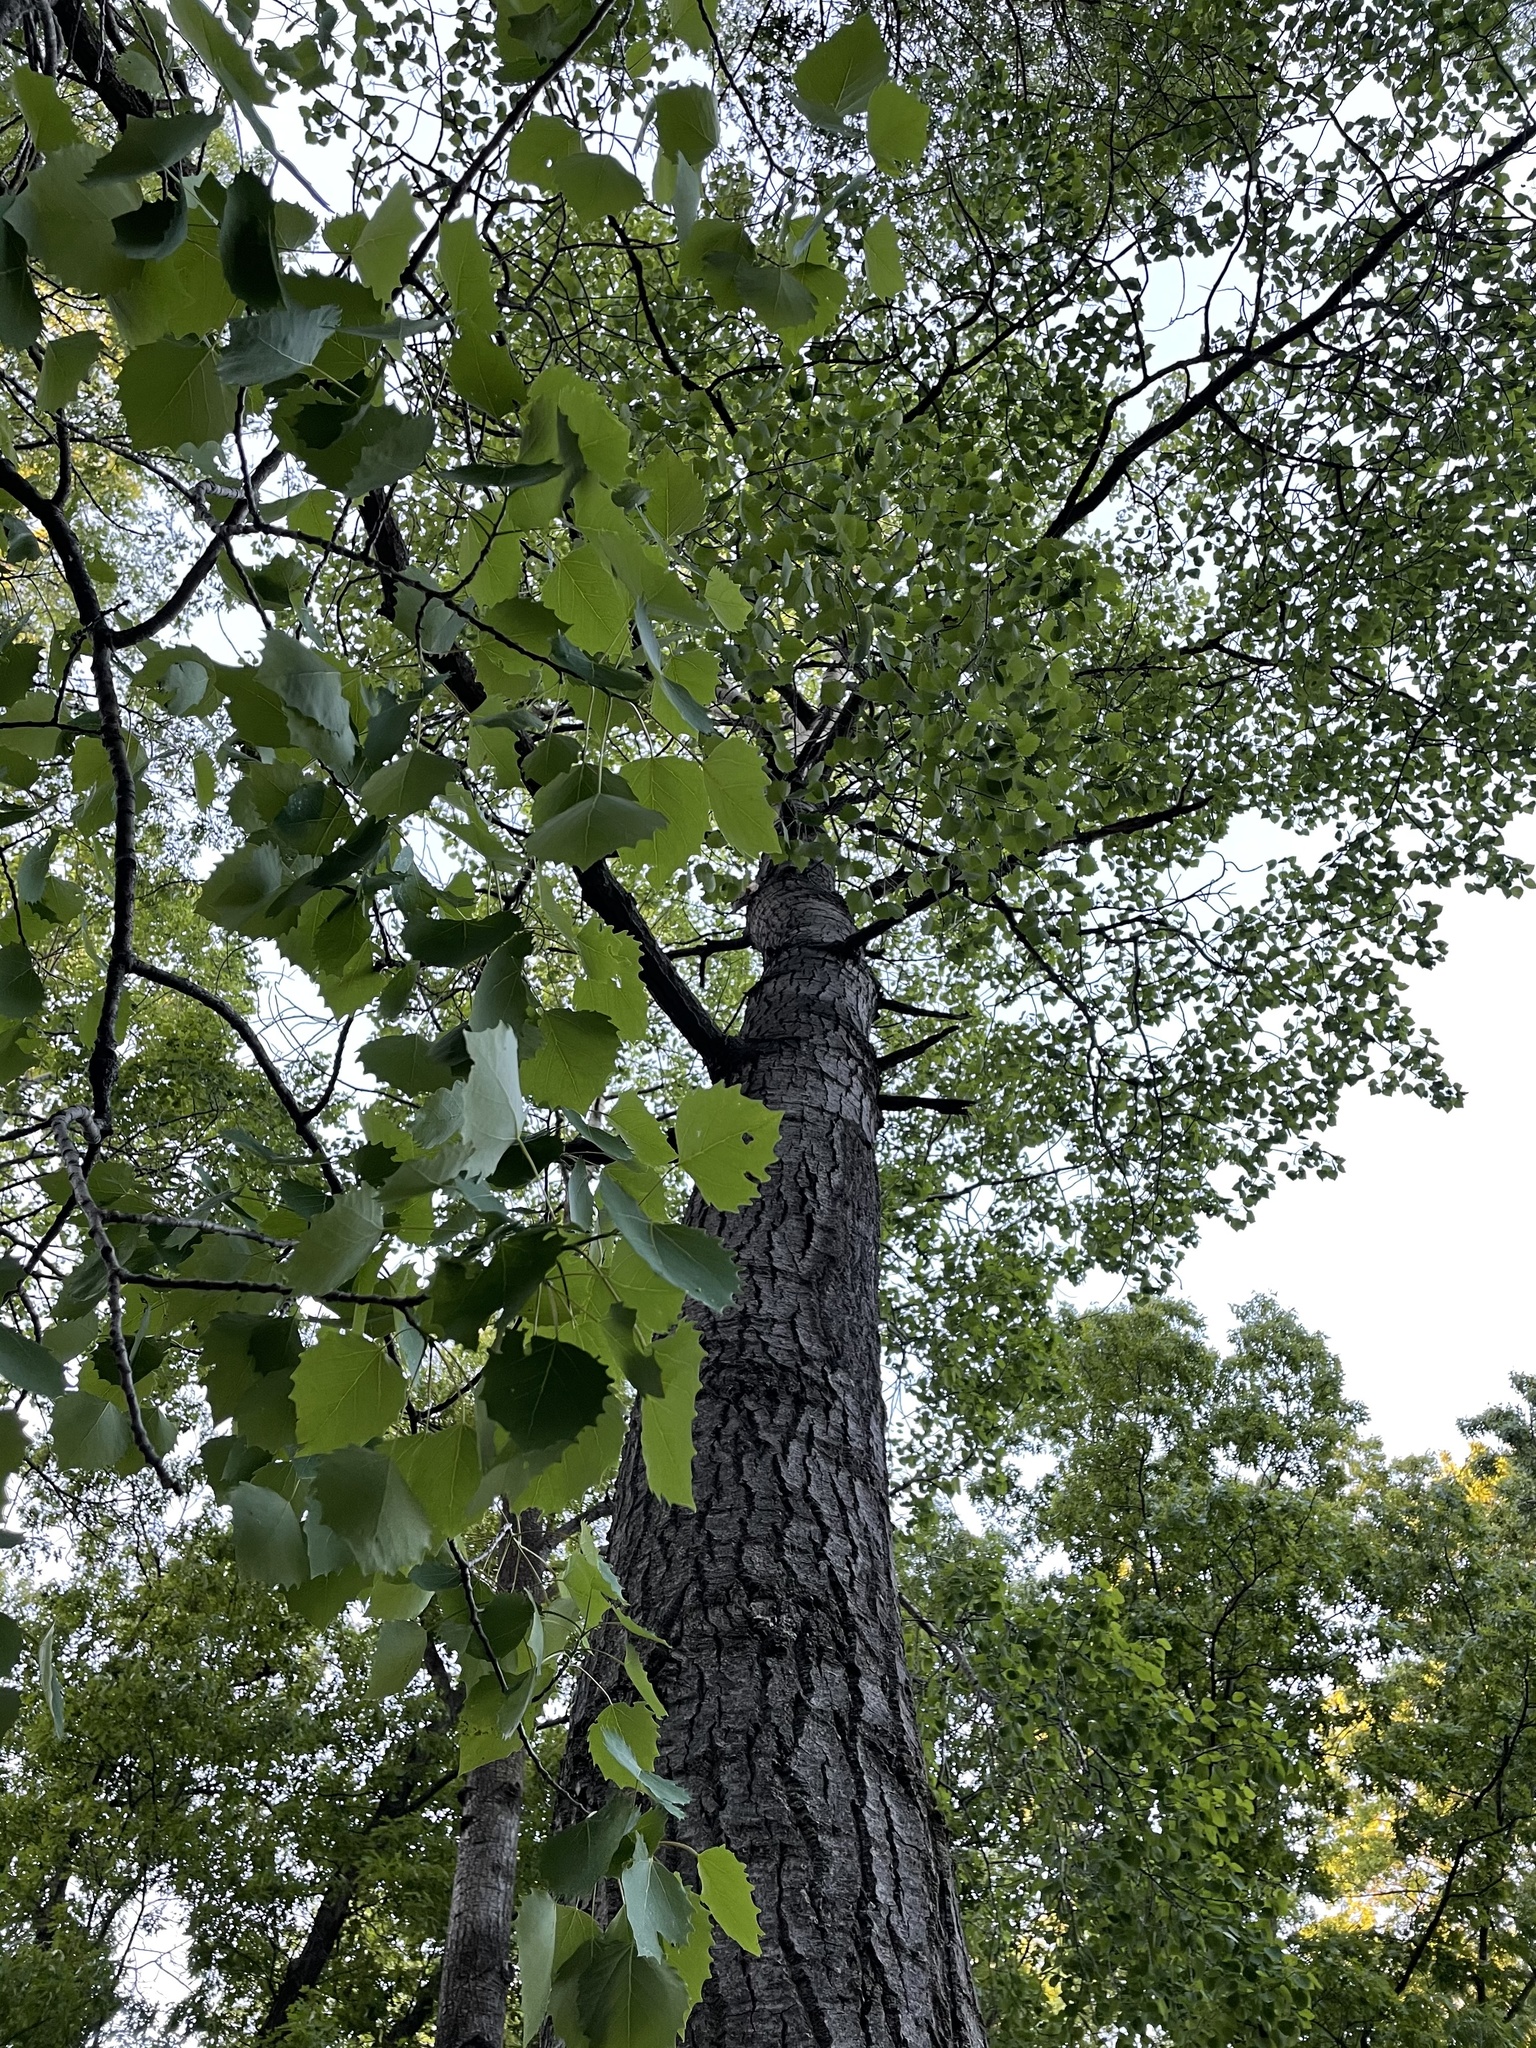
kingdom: Plantae
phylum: Tracheophyta
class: Magnoliopsida
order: Malpighiales
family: Salicaceae
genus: Populus
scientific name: Populus grandidentata
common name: Bigtooth aspen
